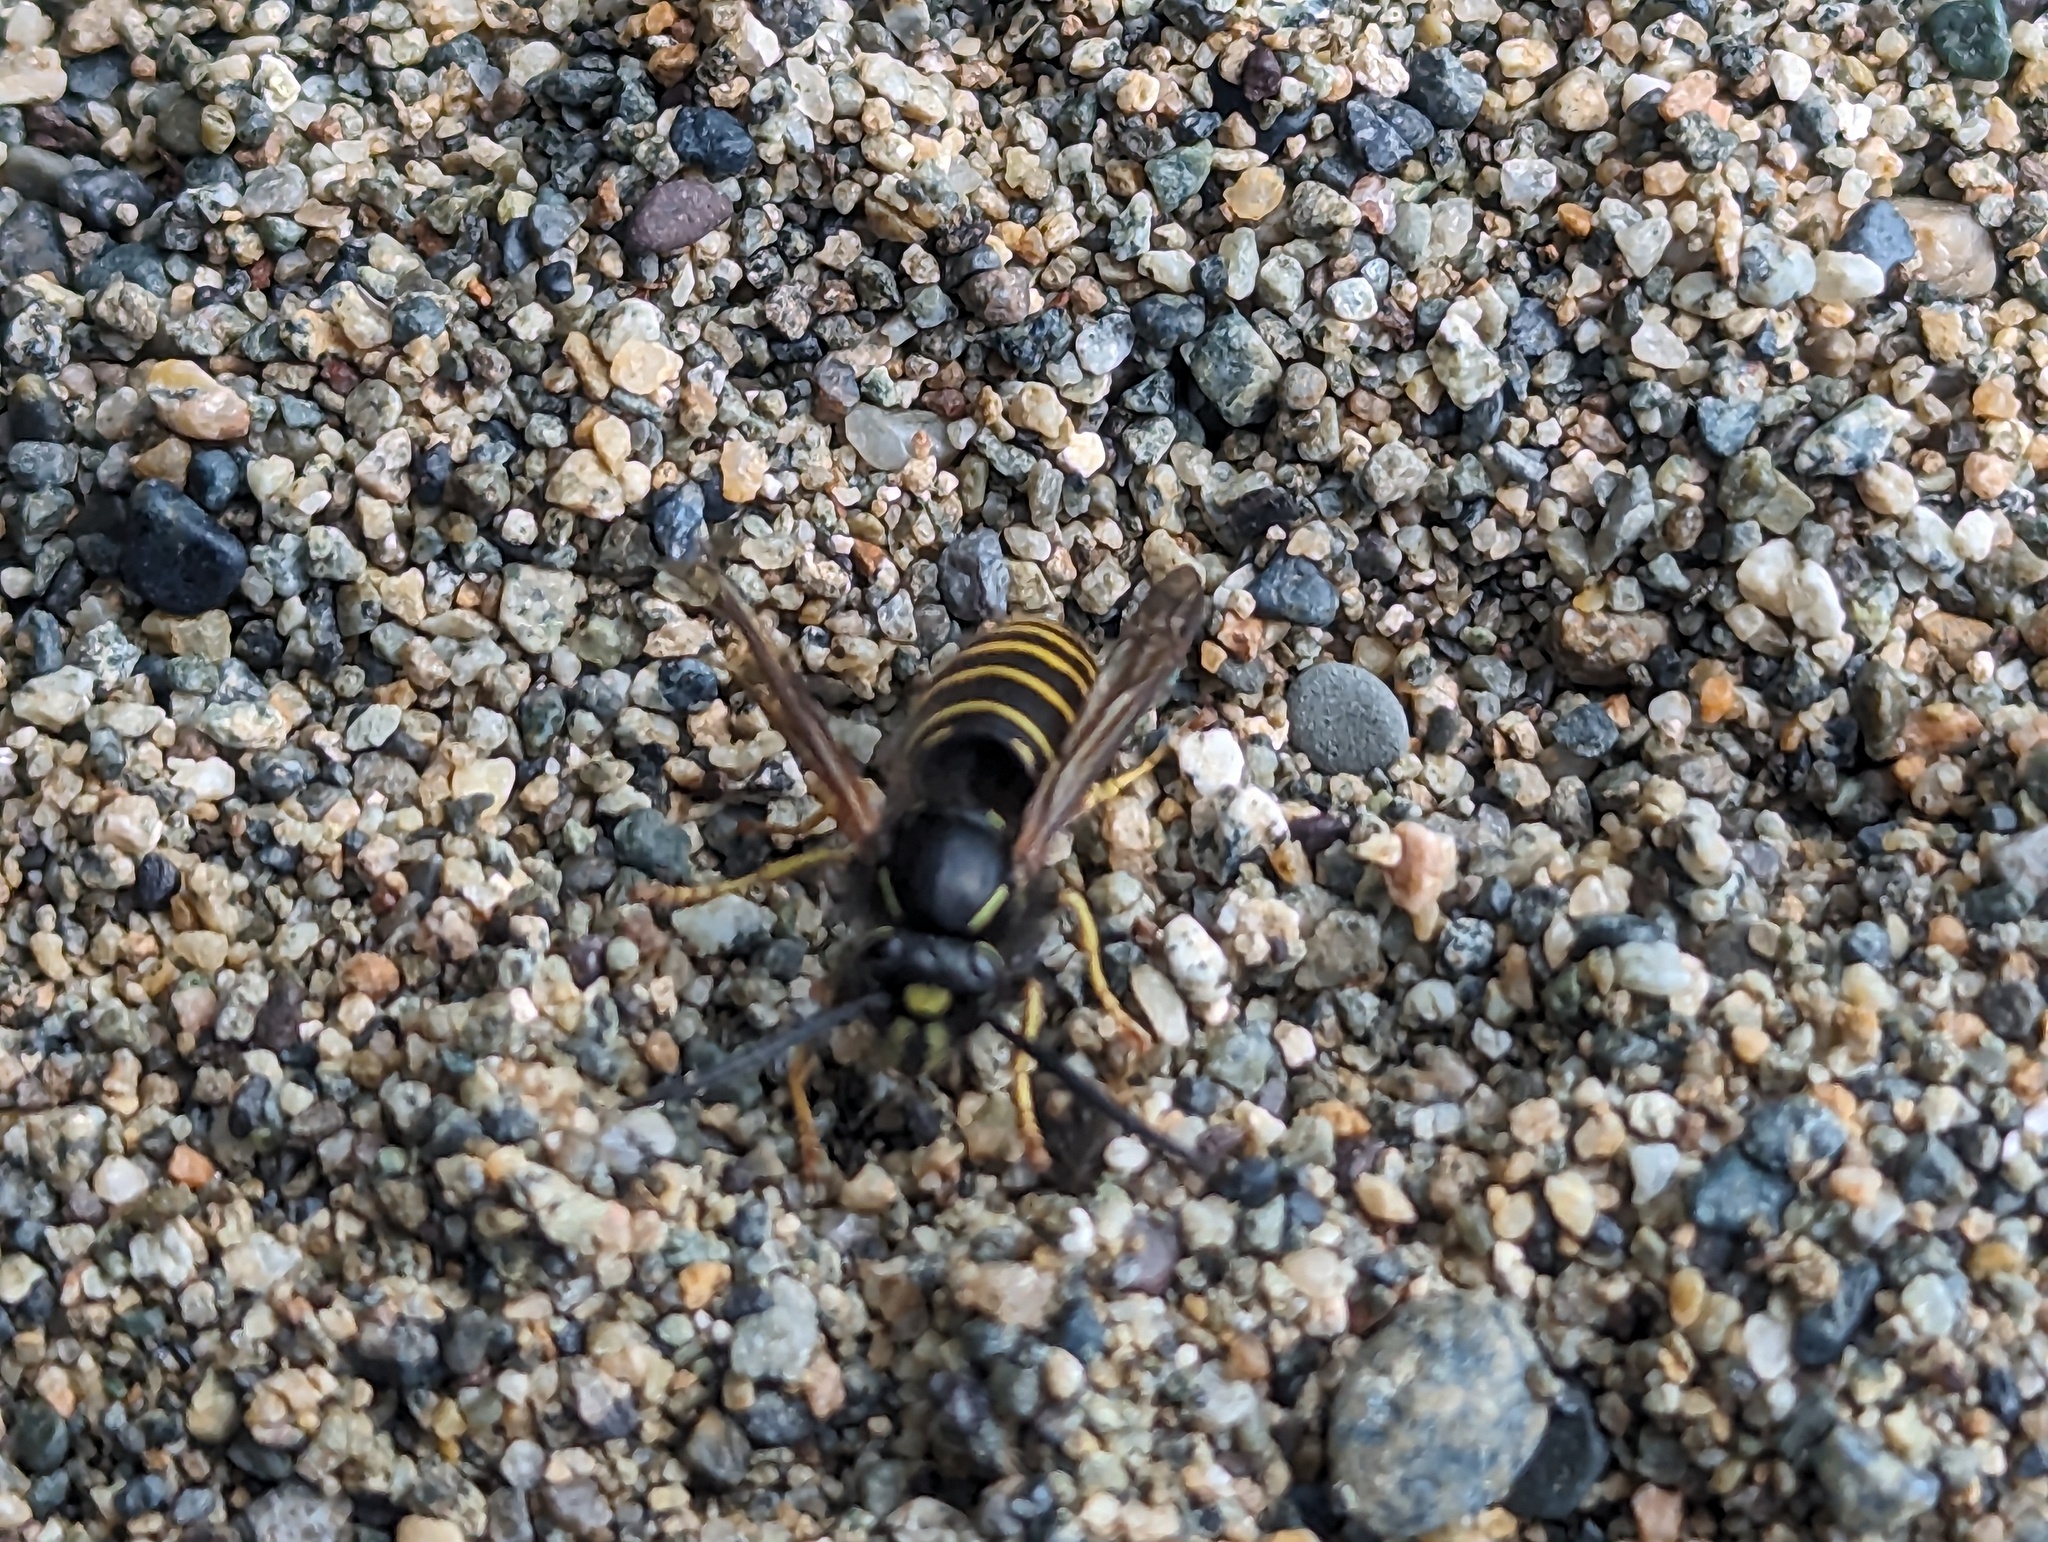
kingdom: Animalia
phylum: Arthropoda
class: Insecta
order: Hymenoptera
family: Vespidae
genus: Vespula
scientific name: Vespula acadica
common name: Forest yellowjacket
